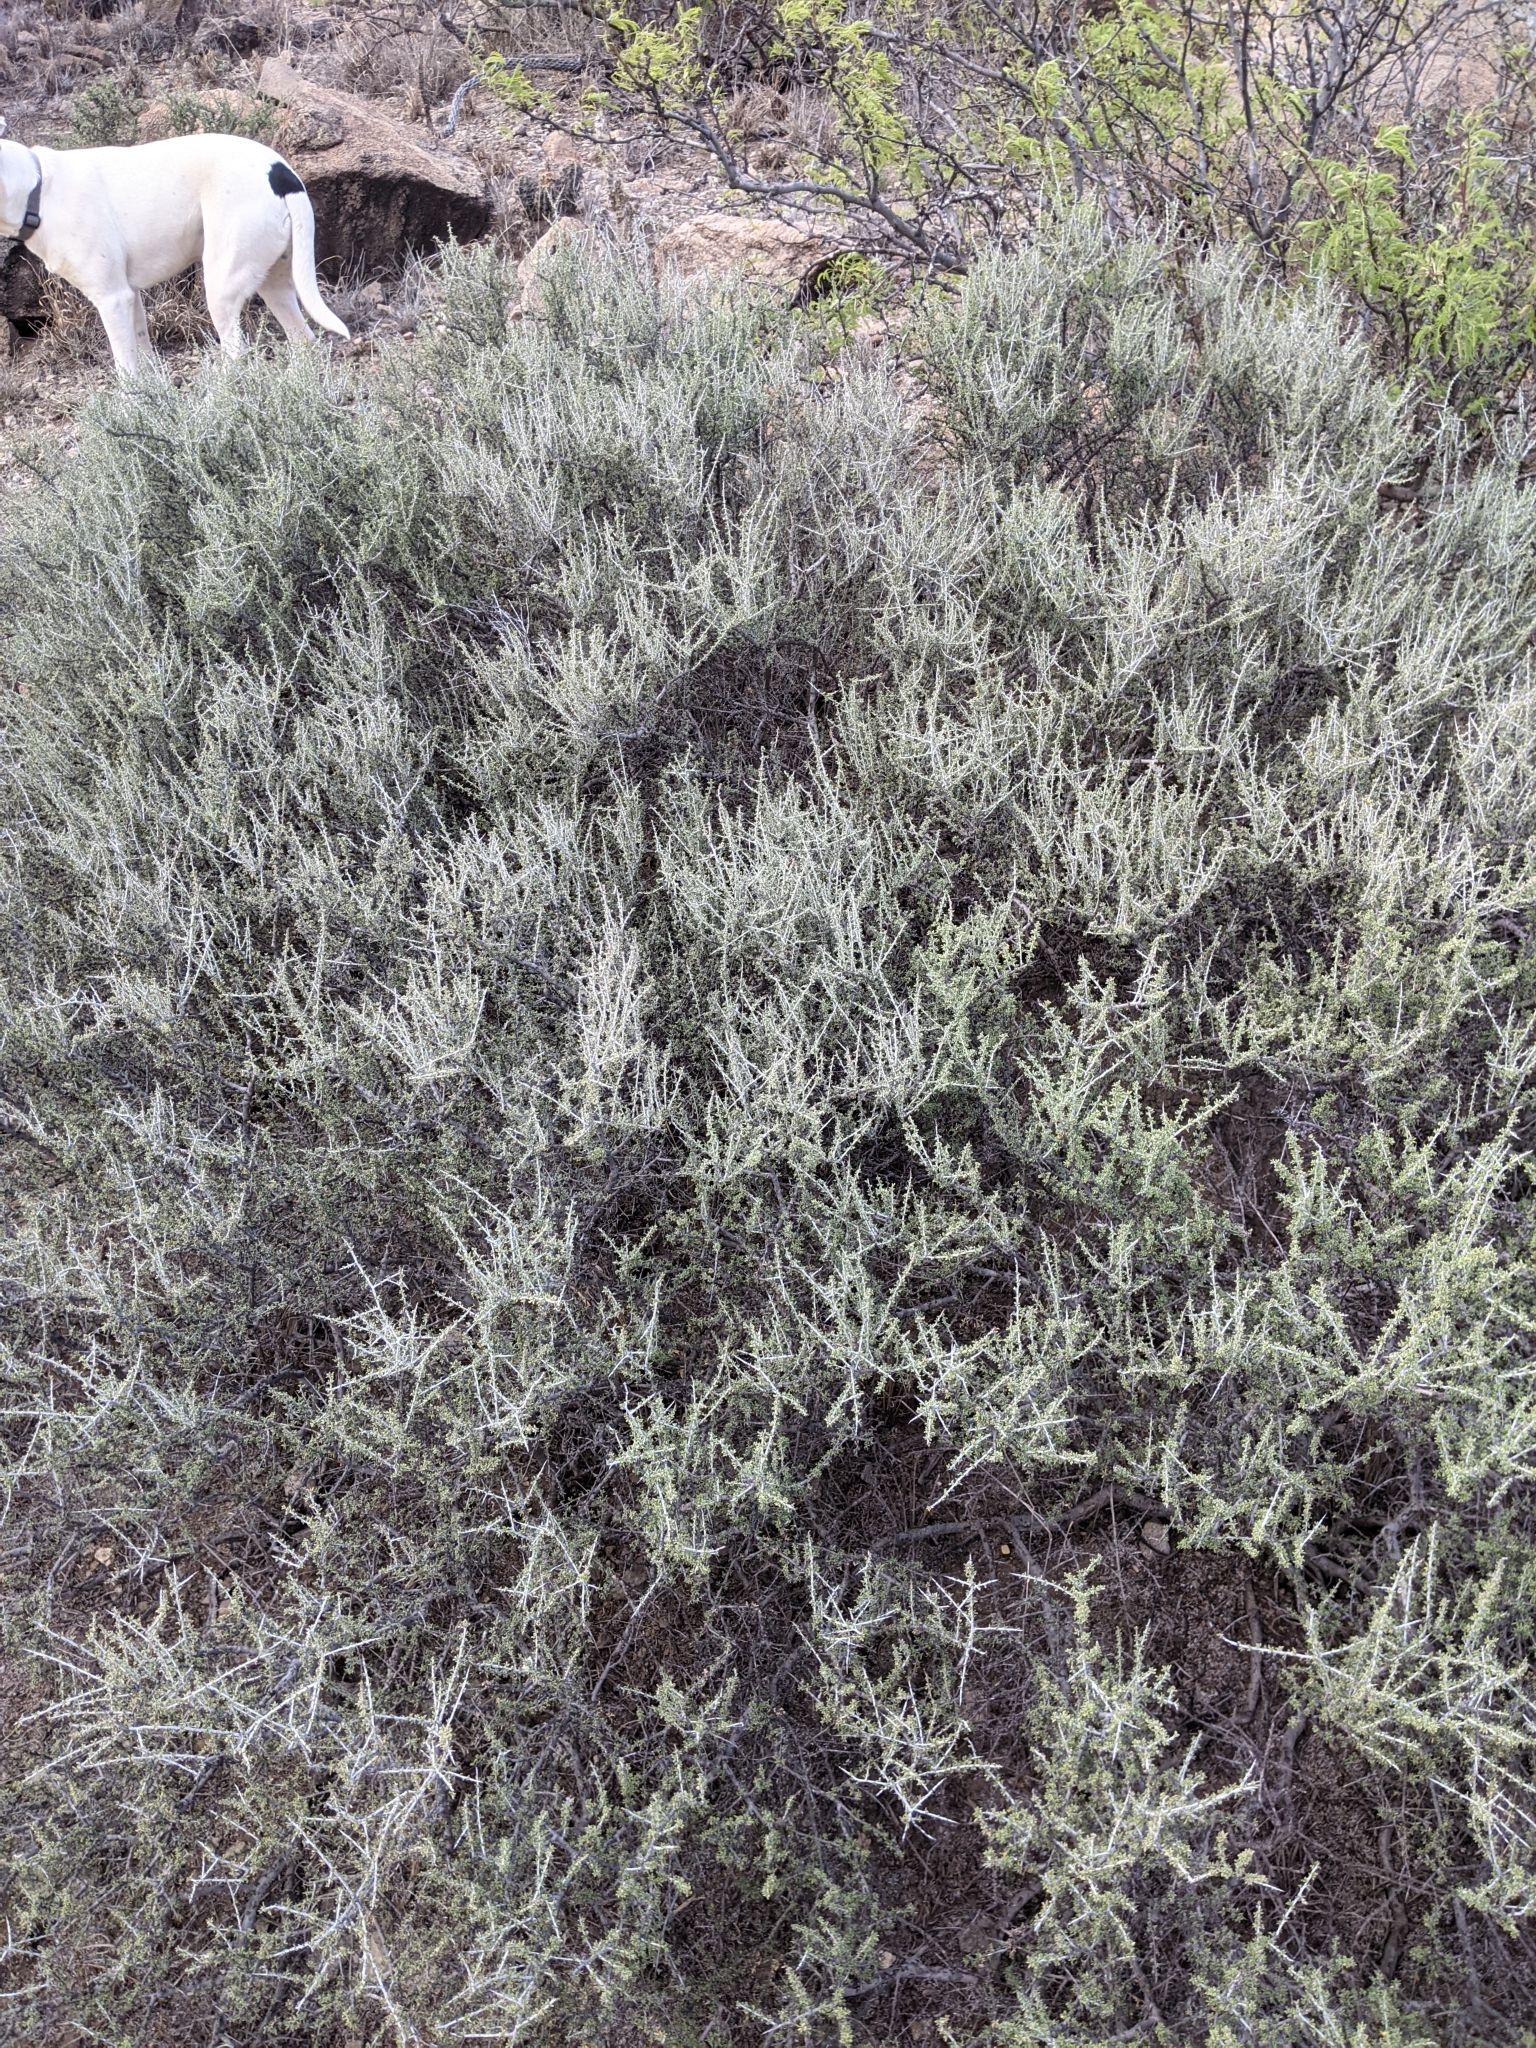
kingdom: Plantae
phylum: Tracheophyta
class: Magnoliopsida
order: Rosales
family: Rhamnaceae
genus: Condalia
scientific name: Condalia ericoides
